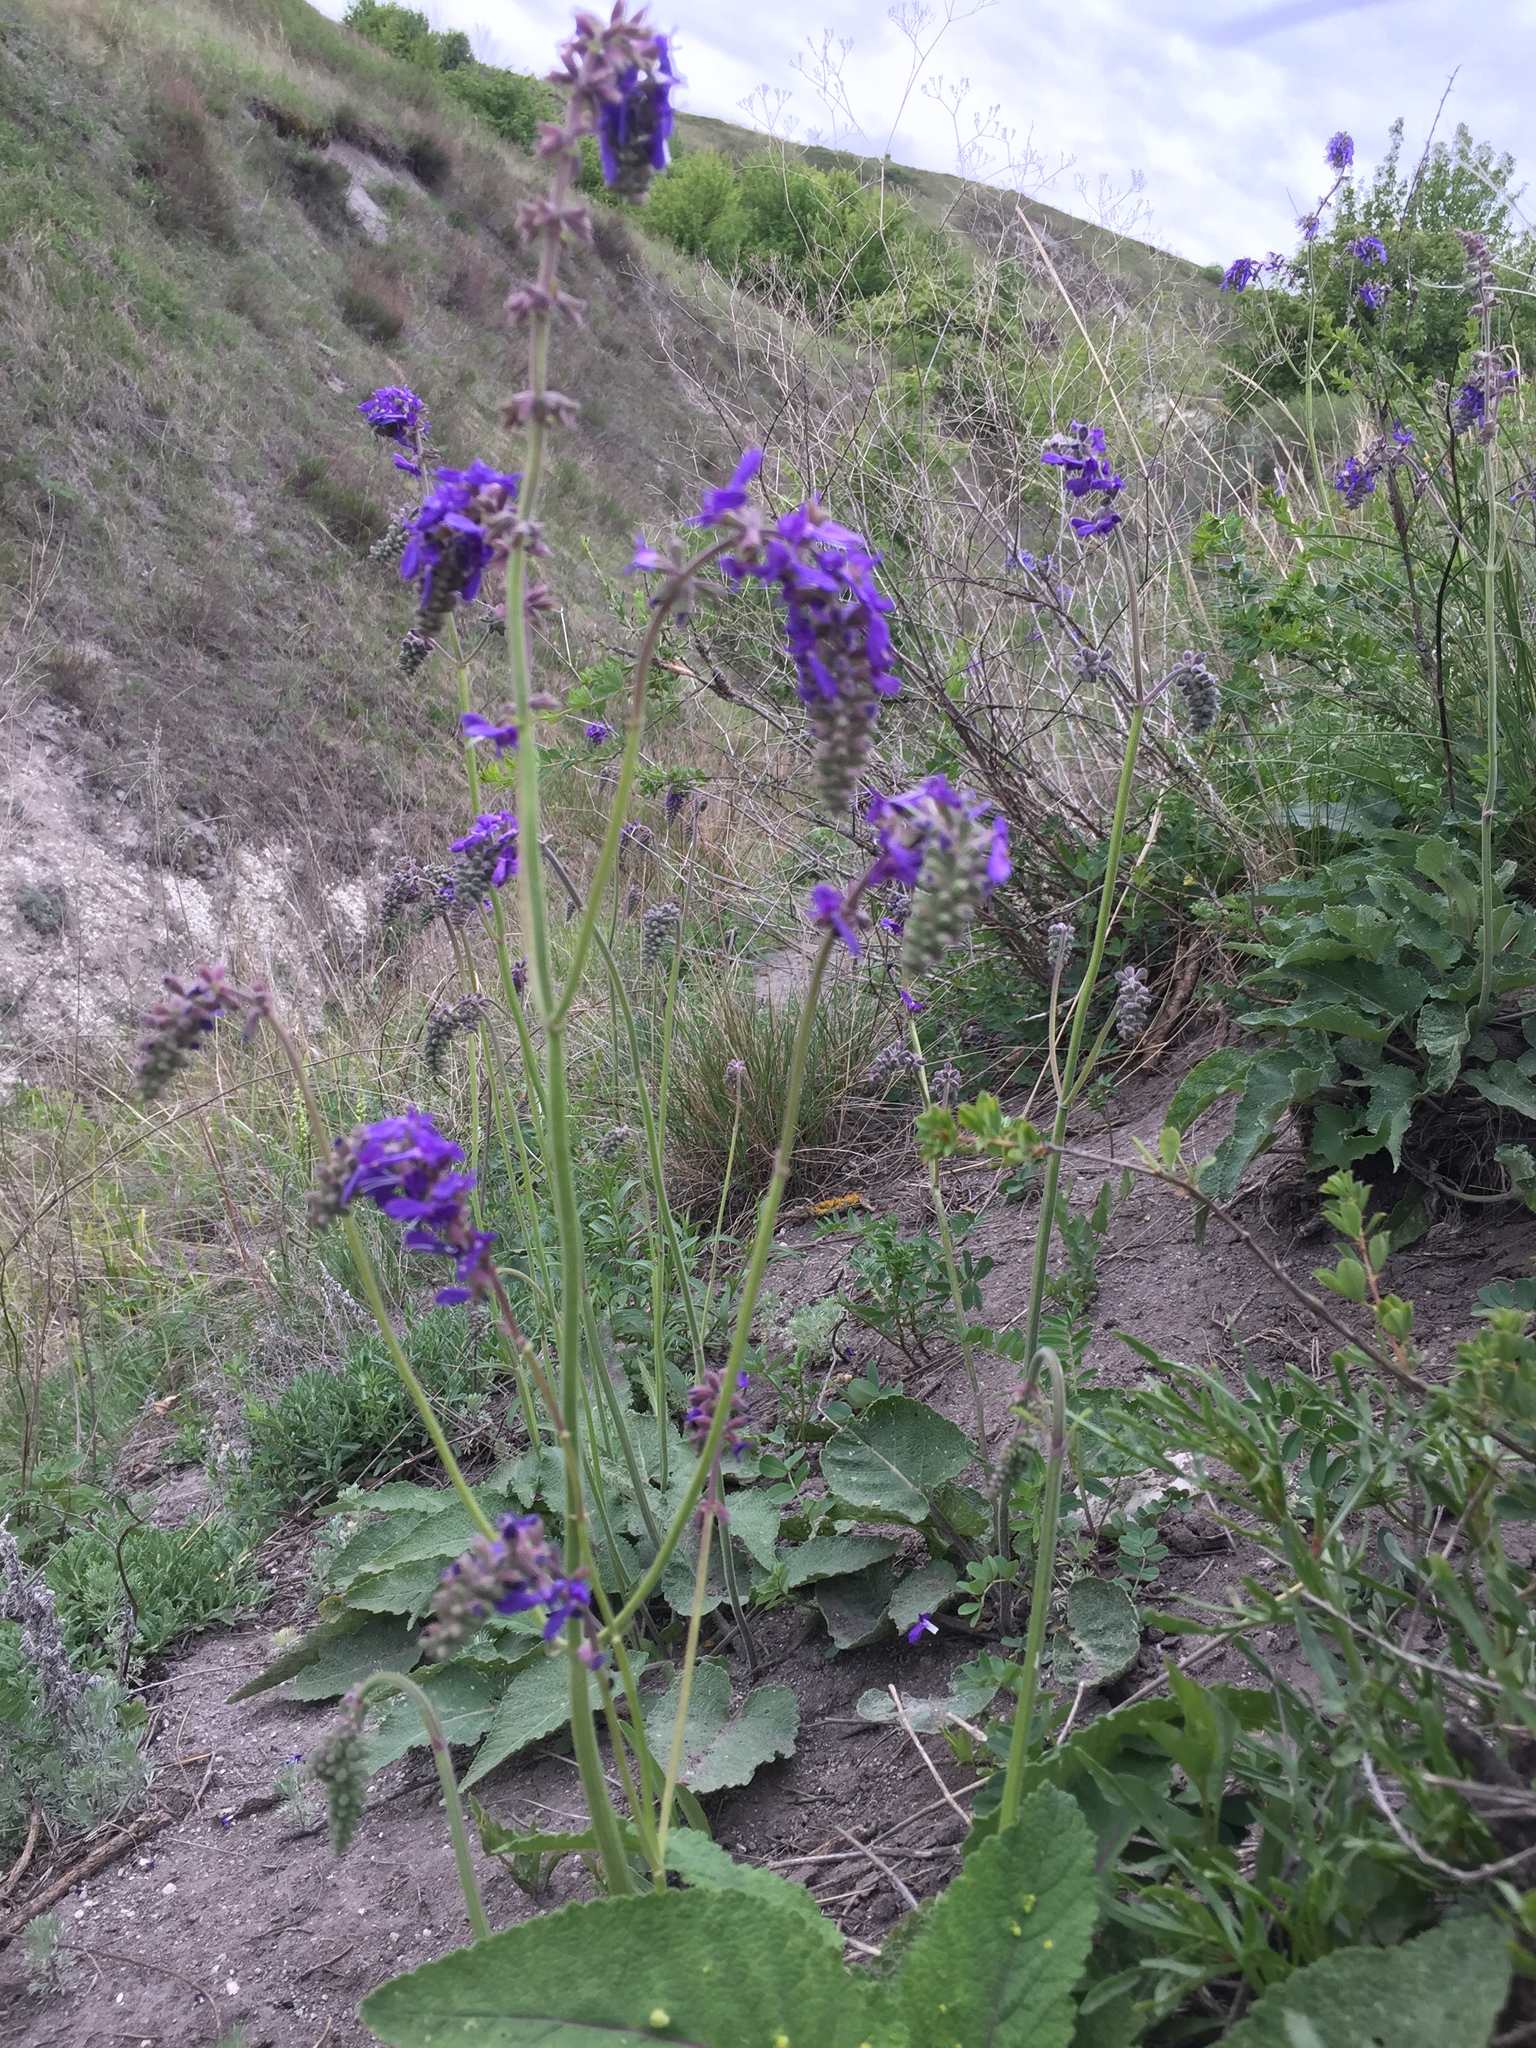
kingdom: Plantae
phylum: Tracheophyta
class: Magnoliopsida
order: Lamiales
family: Lamiaceae
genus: Salvia
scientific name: Salvia nutans
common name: Nodding sage
